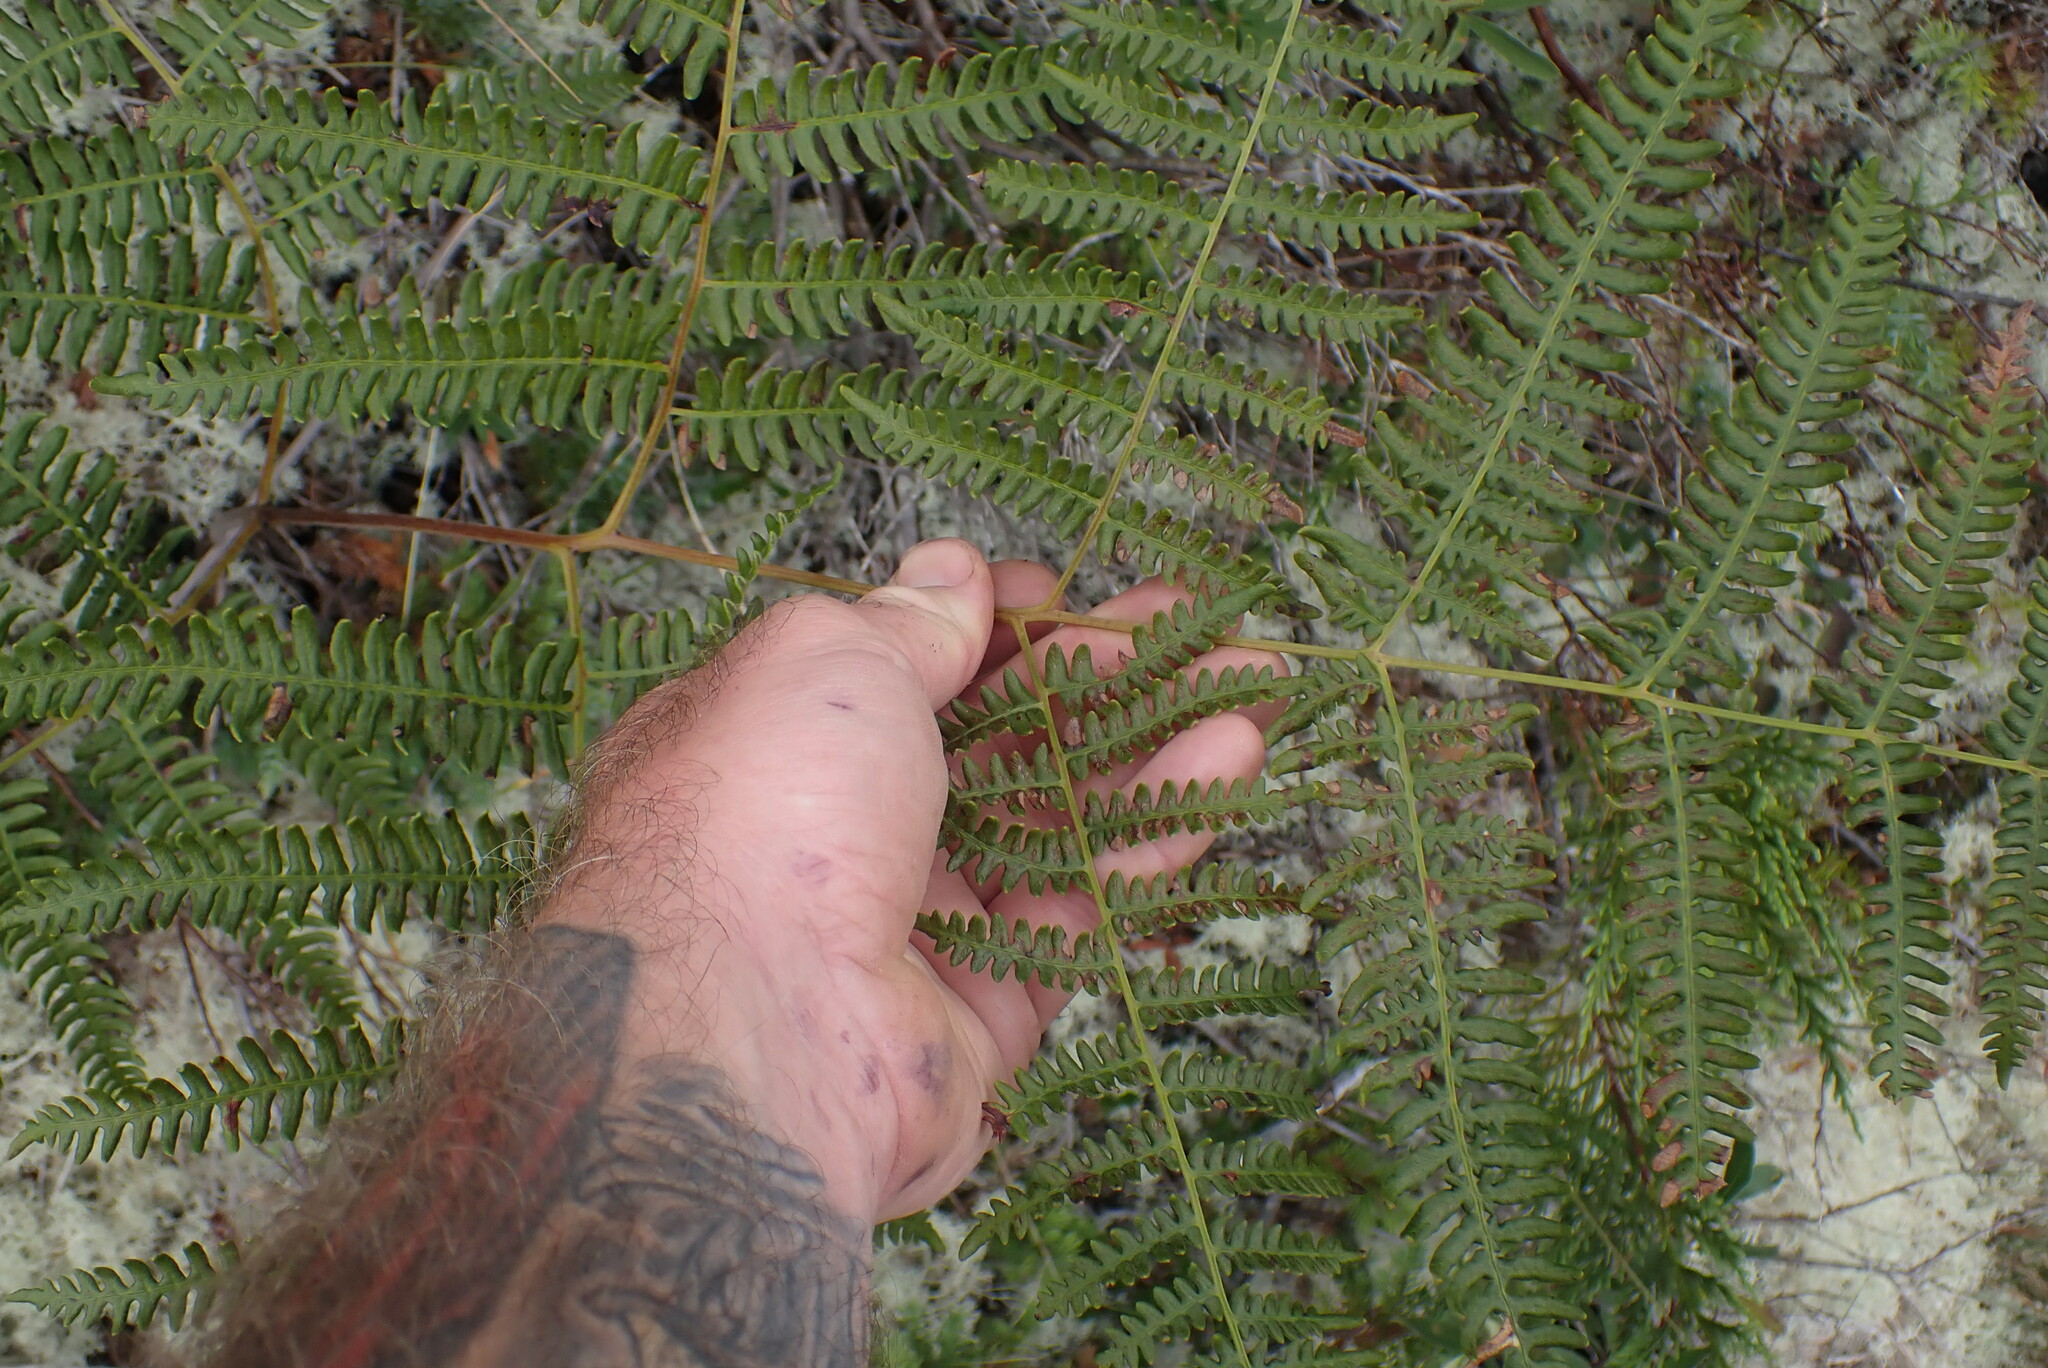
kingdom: Plantae
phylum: Tracheophyta
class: Polypodiopsida
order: Polypodiales
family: Dennstaedtiaceae
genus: Pteridium
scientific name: Pteridium aquilinum
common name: Bracken
